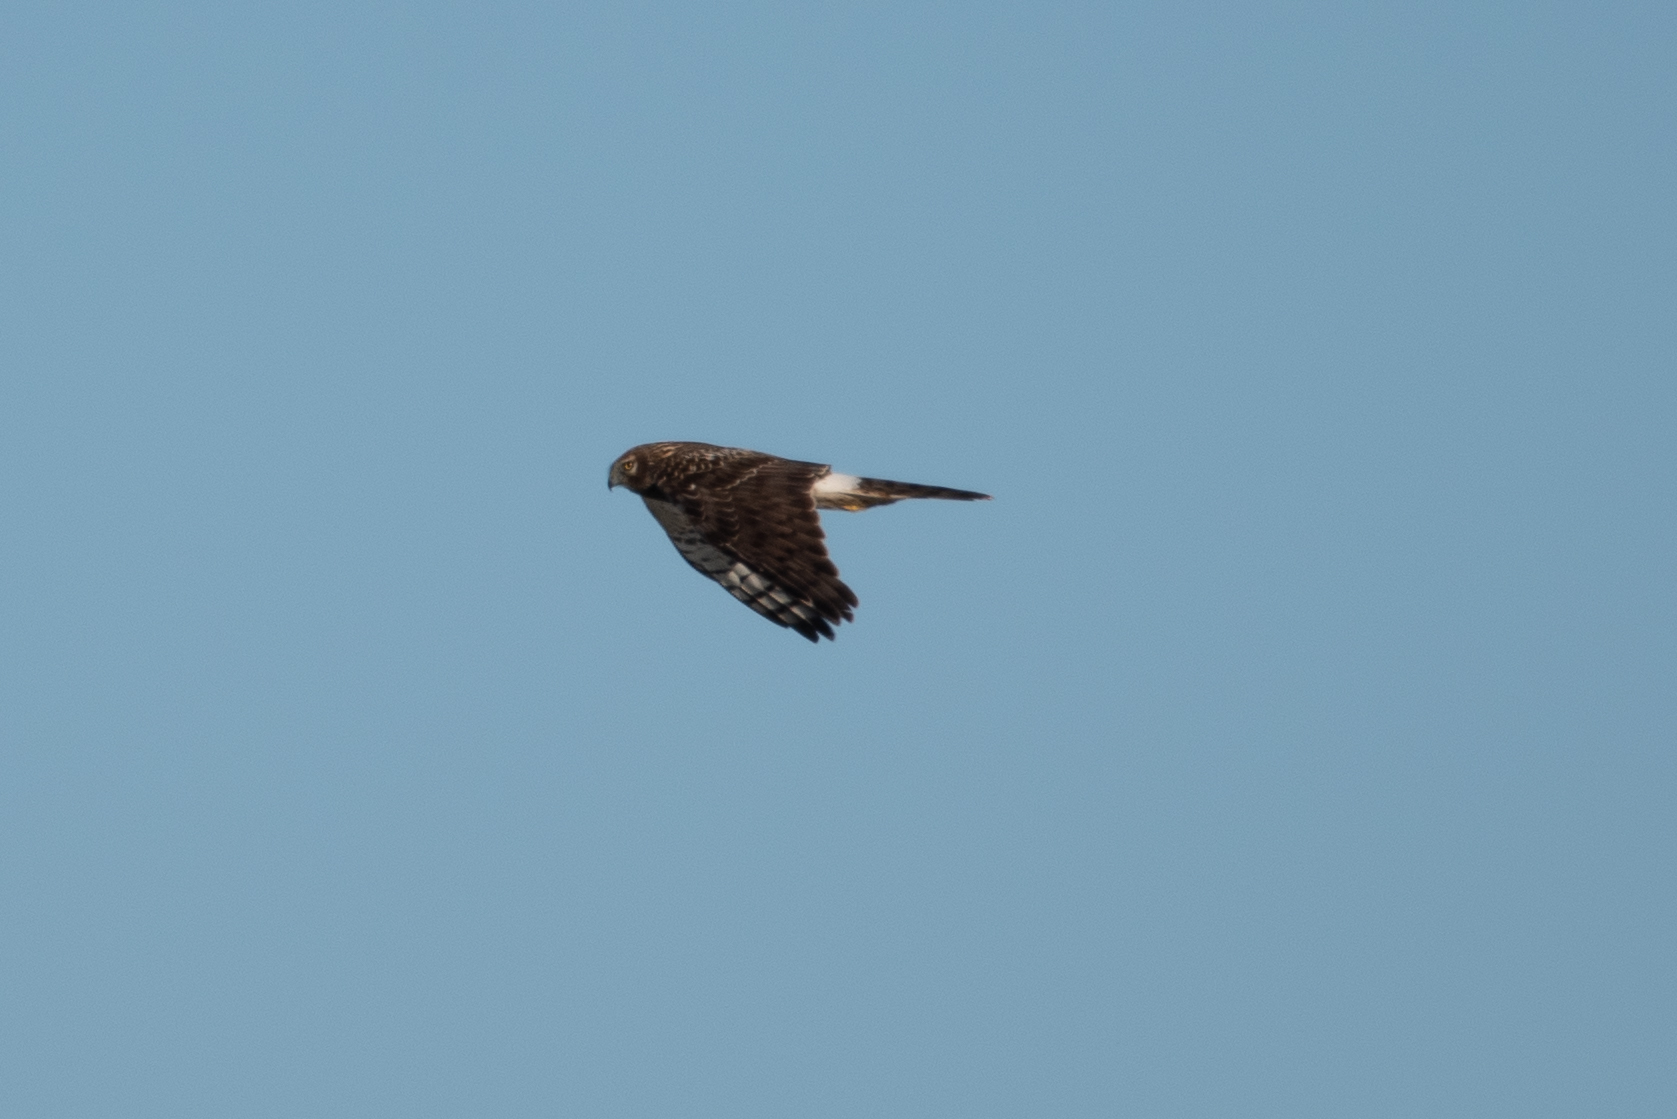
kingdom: Animalia
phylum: Chordata
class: Aves
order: Accipitriformes
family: Accipitridae
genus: Circus
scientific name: Circus cyaneus
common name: Hen harrier
